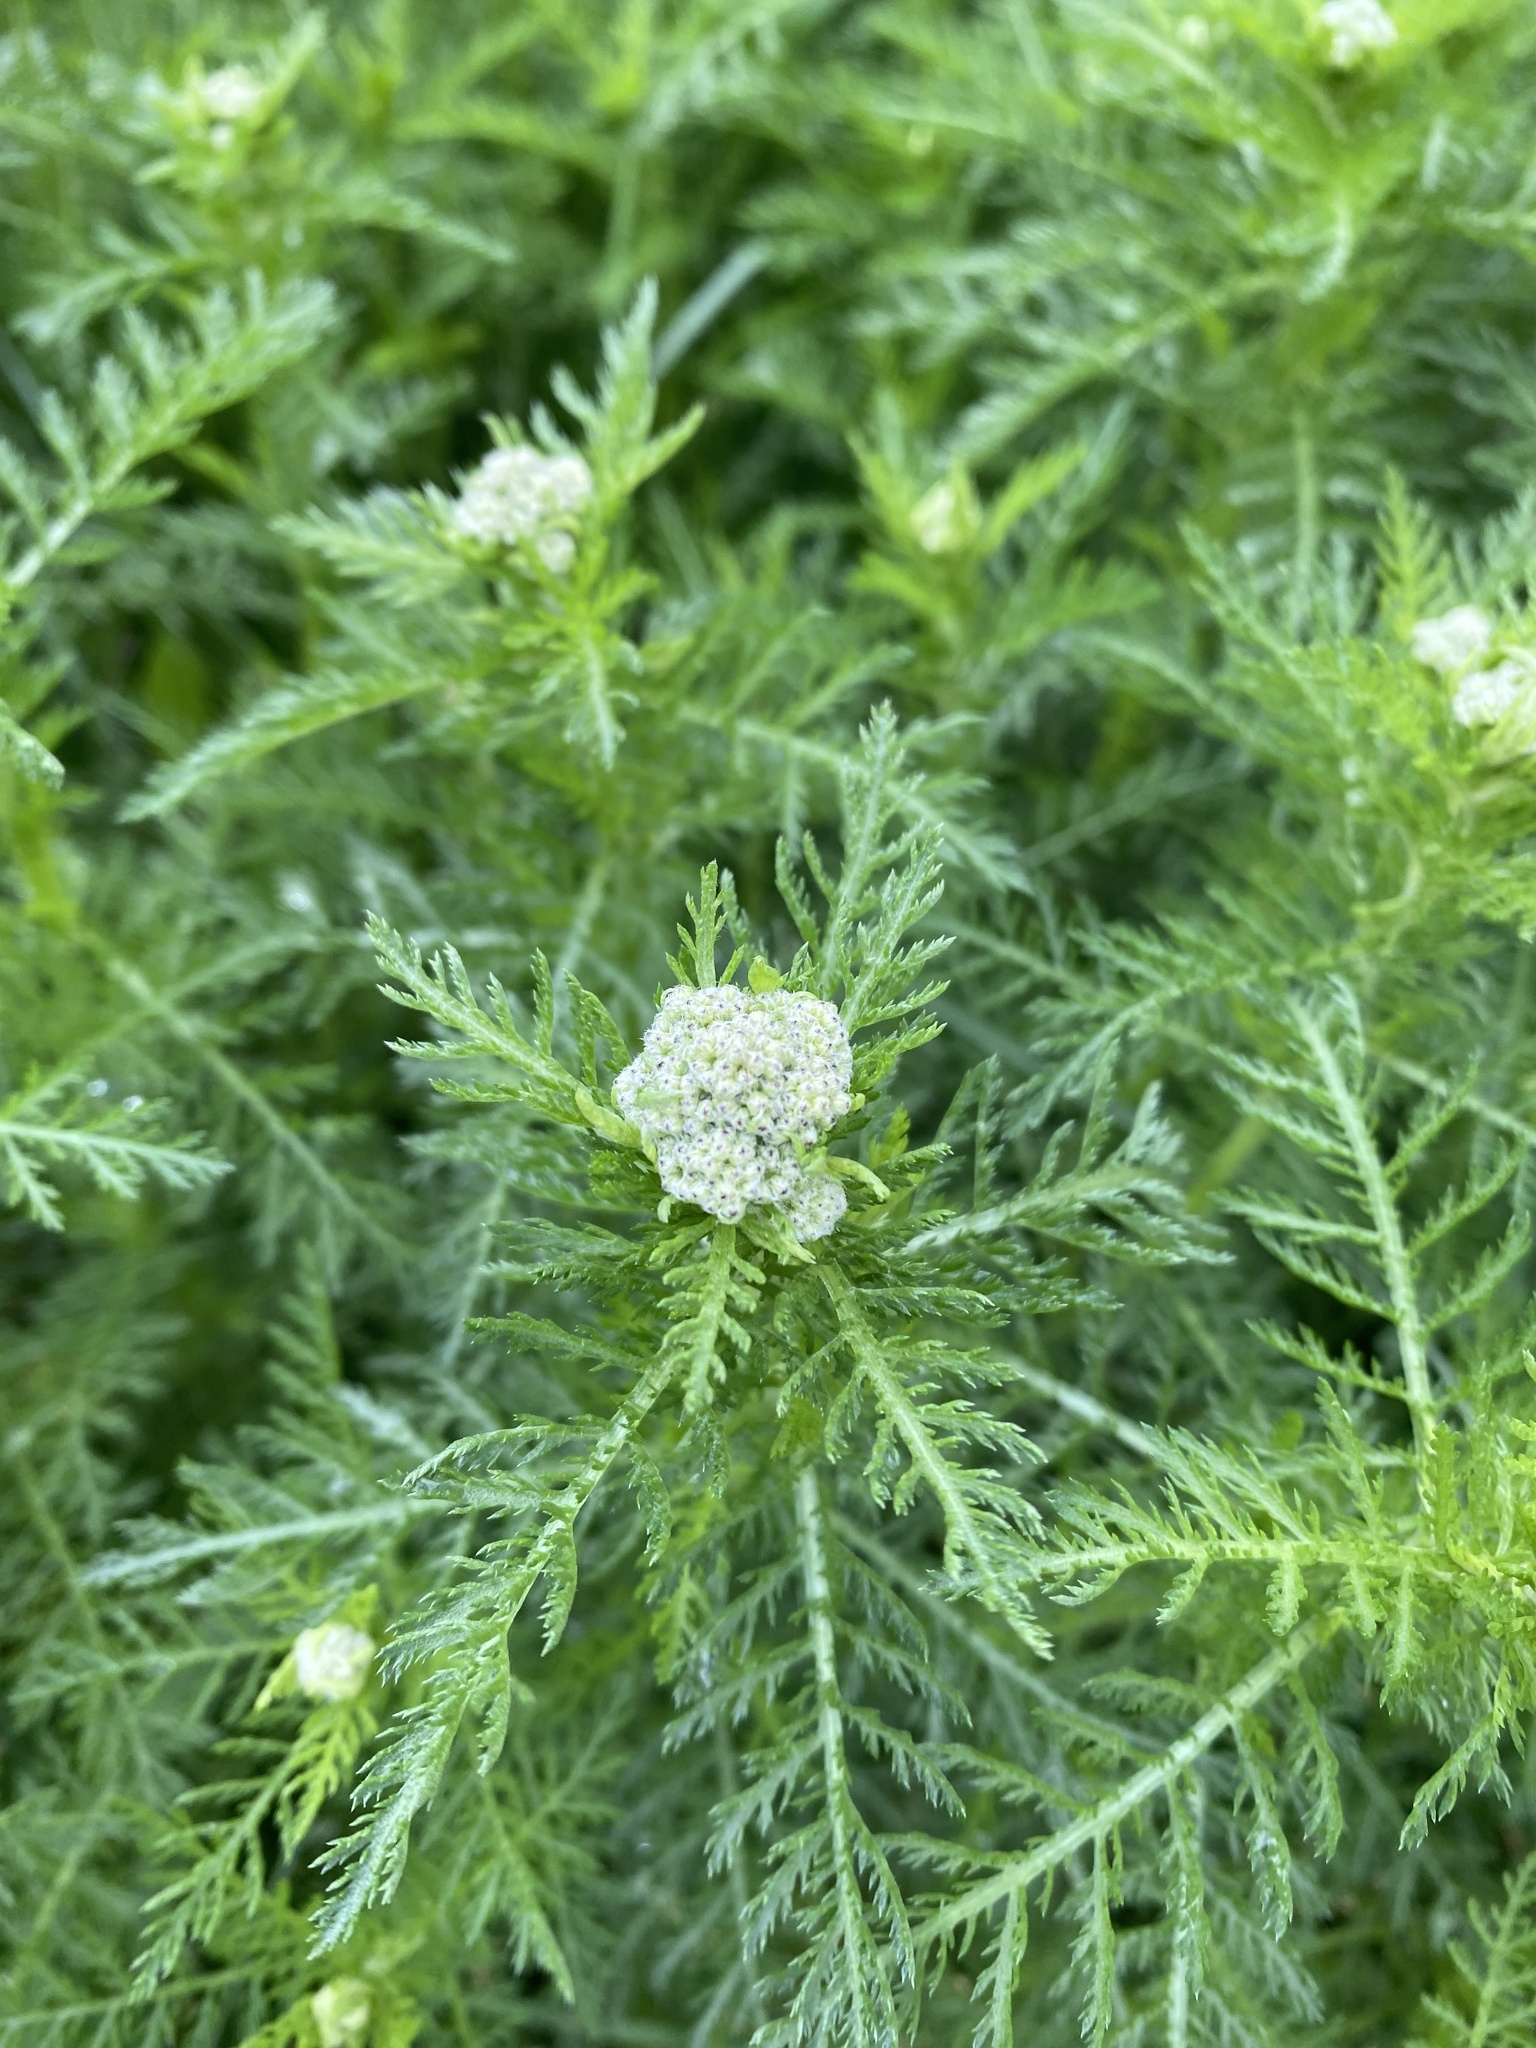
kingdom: Plantae
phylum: Tracheophyta
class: Magnoliopsida
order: Asterales
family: Asteraceae
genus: Achillea
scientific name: Achillea nobilis
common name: Noble yarrow
